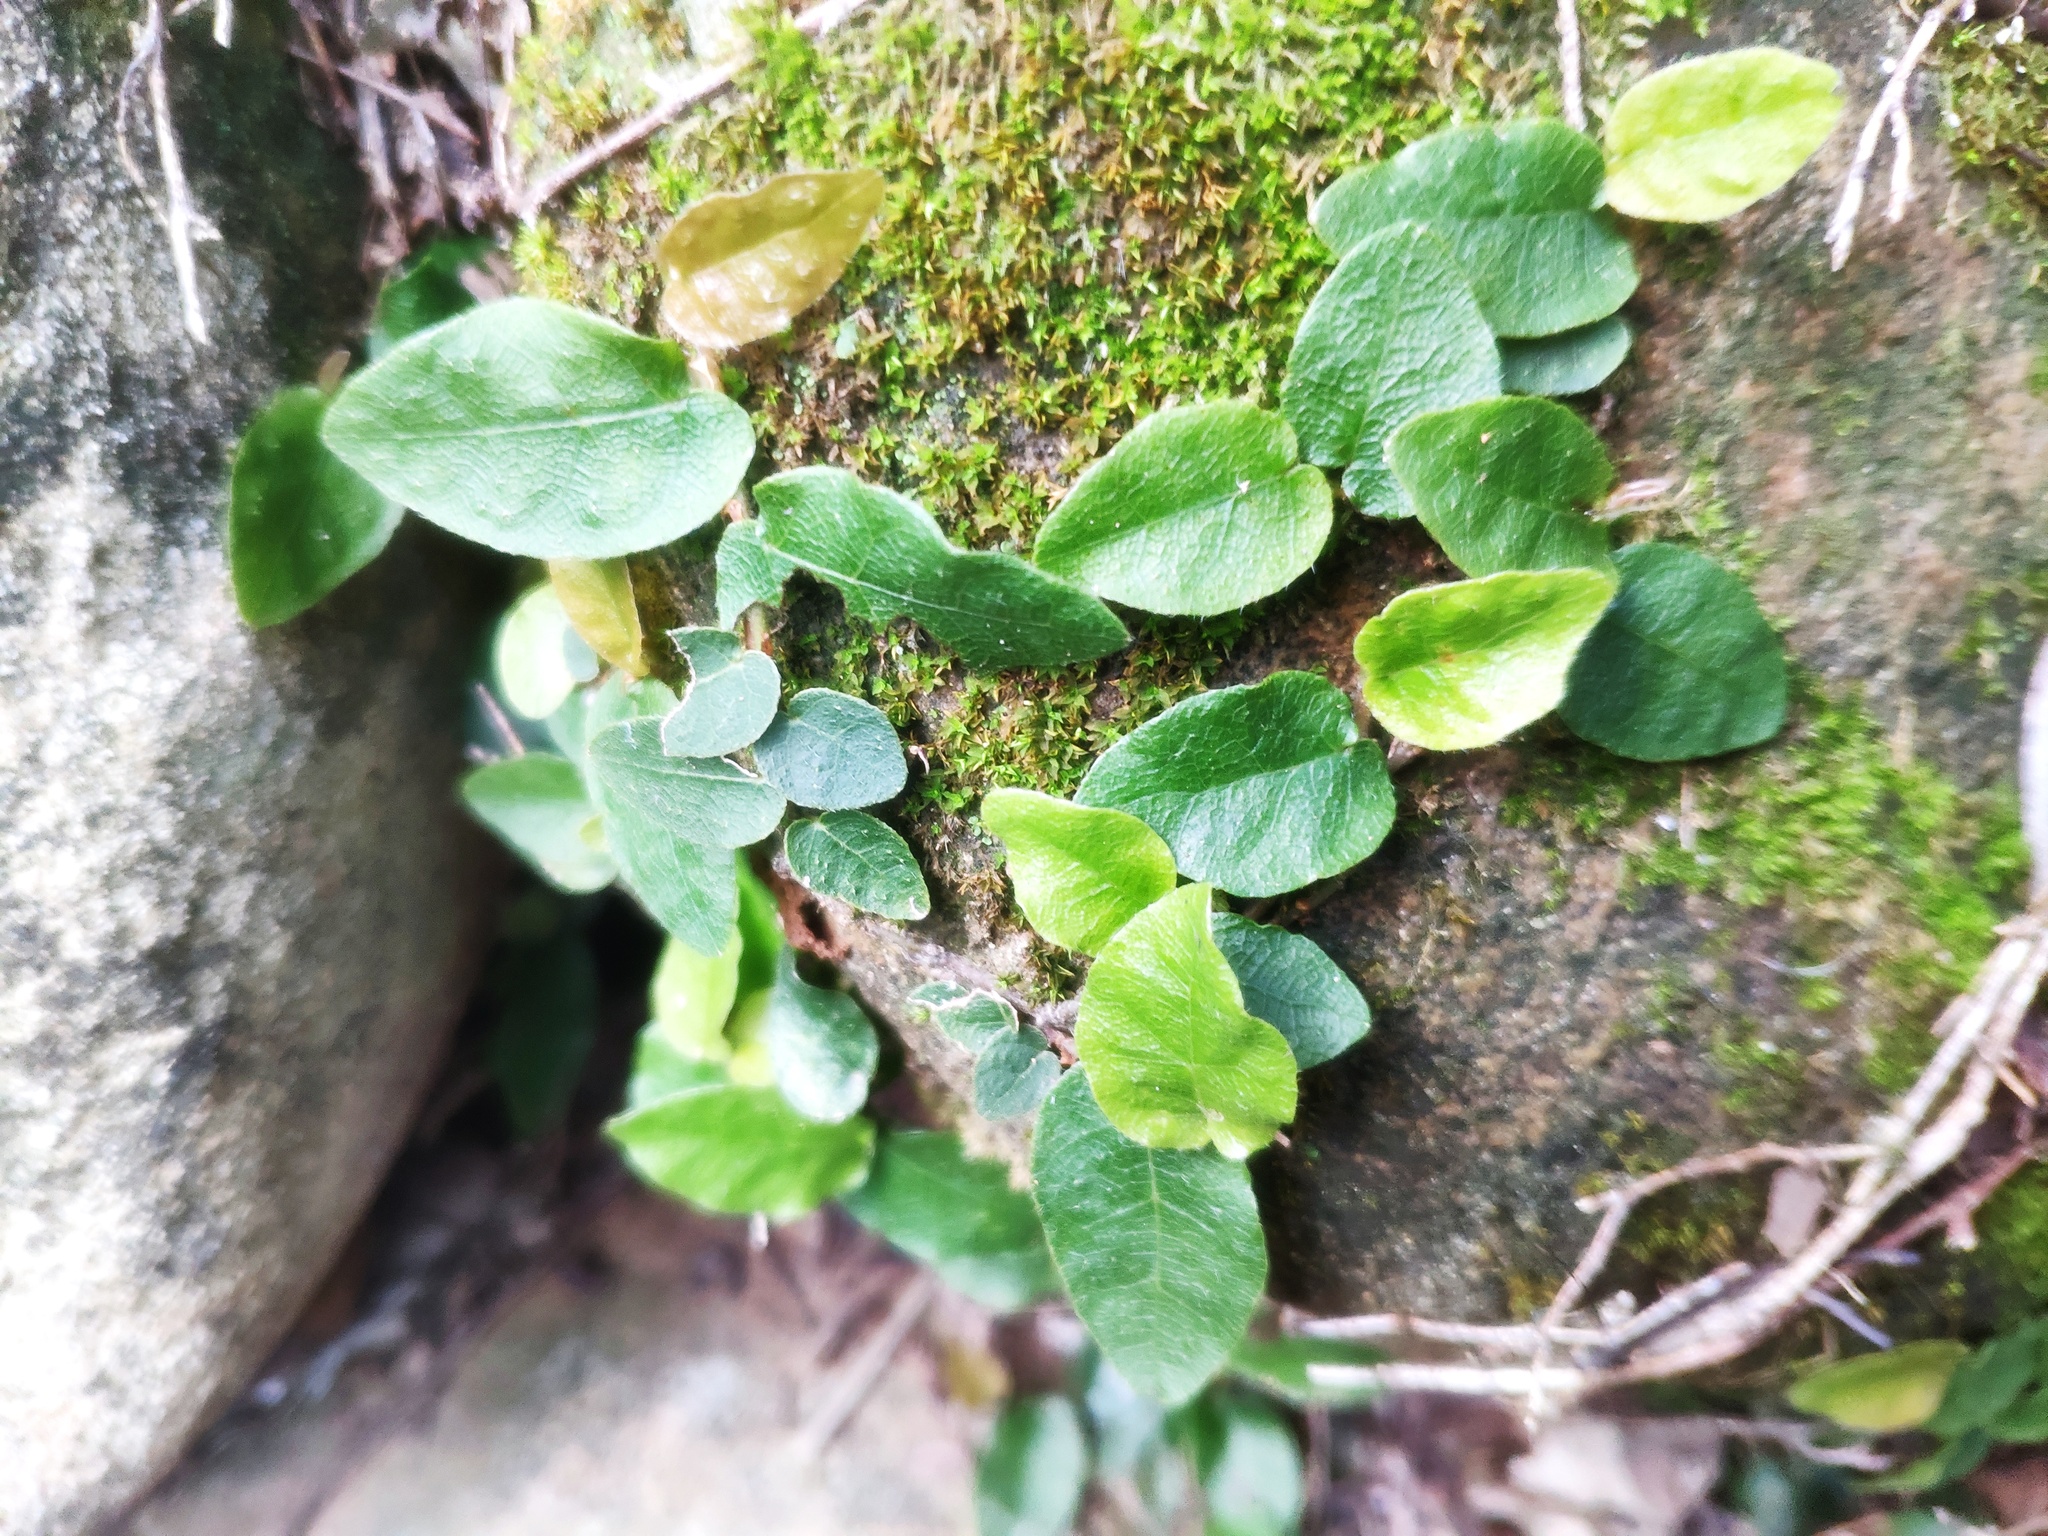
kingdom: Plantae
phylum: Tracheophyta
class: Magnoliopsida
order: Rosales
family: Moraceae
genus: Ficus
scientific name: Ficus pumila
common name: Climbingfig
